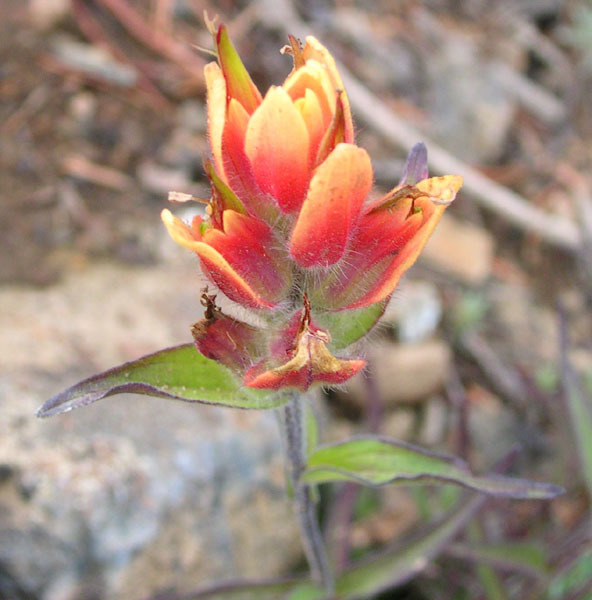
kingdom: Plantae
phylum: Tracheophyta
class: Magnoliopsida
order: Lamiales
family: Orobanchaceae
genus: Castilleja
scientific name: Castilleja elmeri
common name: Elmer's paintbrush
